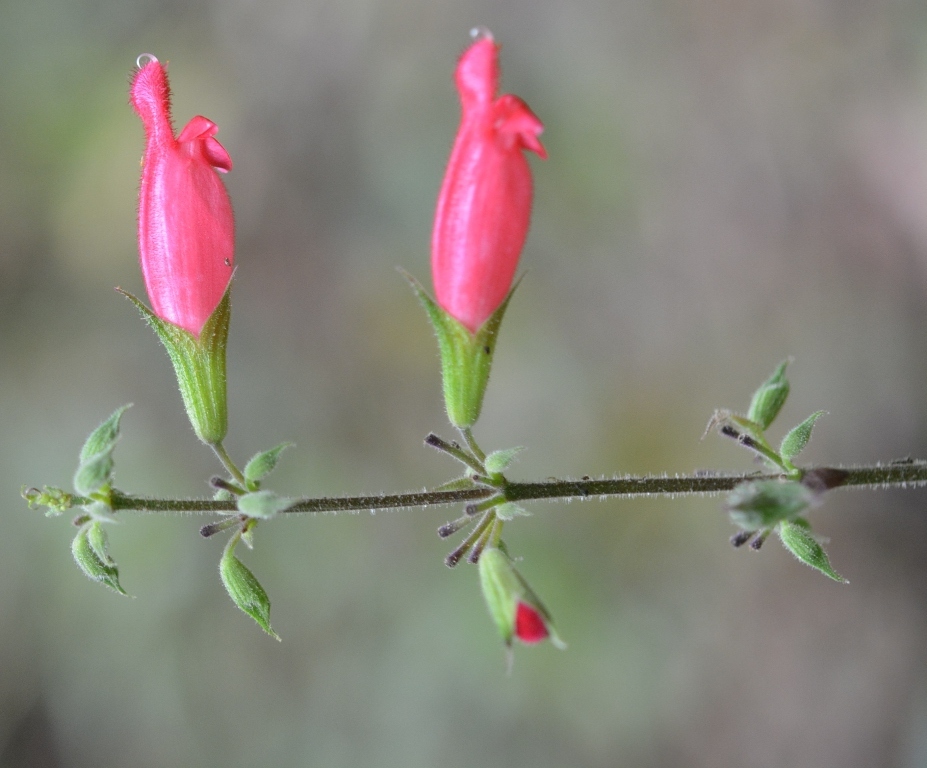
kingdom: Plantae
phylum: Tracheophyta
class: Magnoliopsida
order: Lamiales
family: Lamiaceae
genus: Salvia
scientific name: Salvia karwinskii
